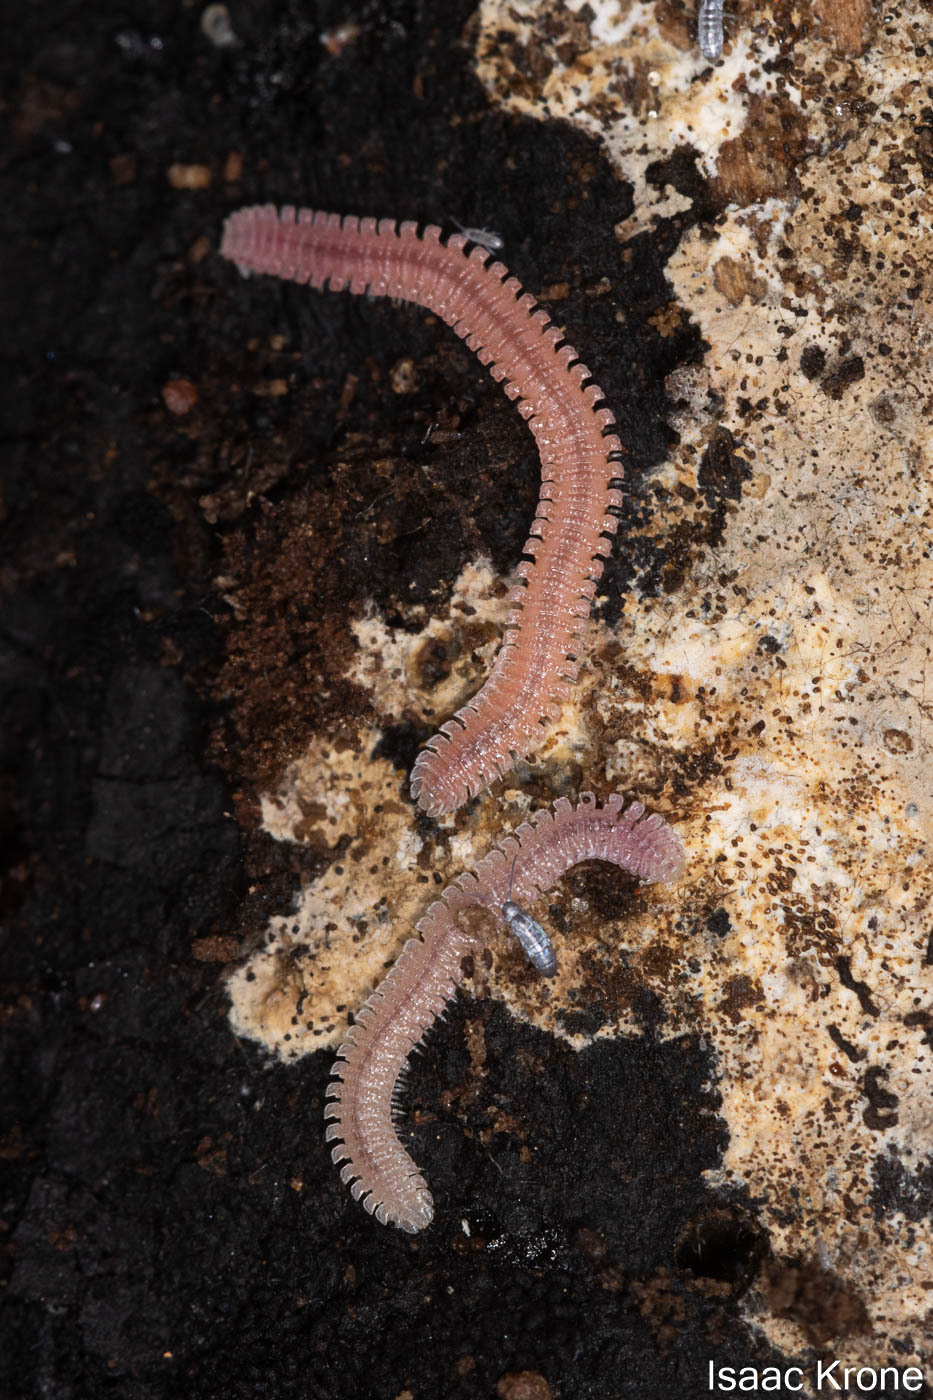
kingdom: Animalia
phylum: Arthropoda
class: Diplopoda
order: Platydesmida
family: Andrognathidae
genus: Gosodesmus
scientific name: Gosodesmus claremontus
